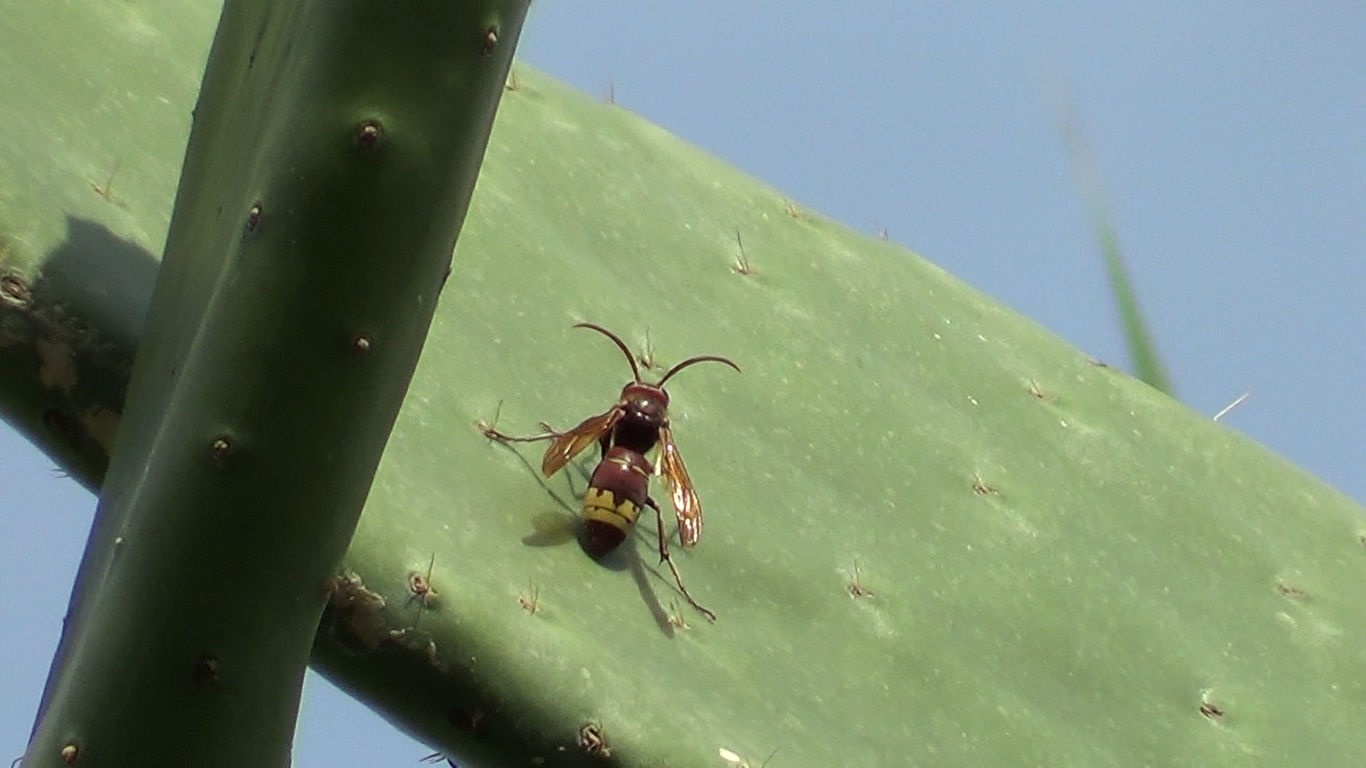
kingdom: Animalia
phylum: Arthropoda
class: Insecta
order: Hymenoptera
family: Vespidae
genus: Vespa
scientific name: Vespa orientalis
